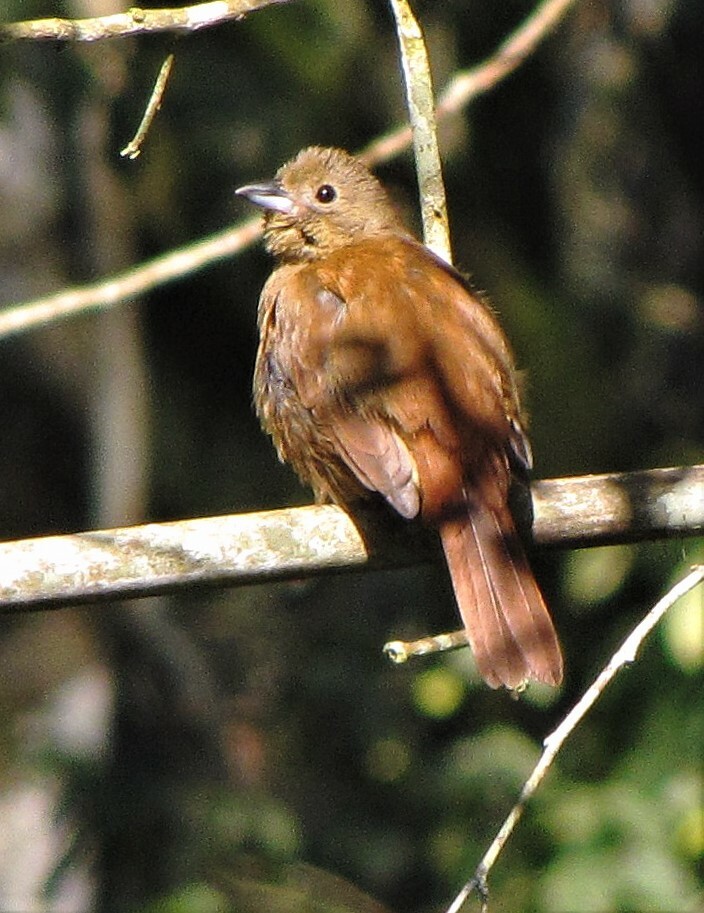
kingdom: Animalia
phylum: Chordata
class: Aves
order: Passeriformes
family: Thraupidae
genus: Tachyphonus
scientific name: Tachyphonus coronatus
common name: Ruby-crowned tanager
